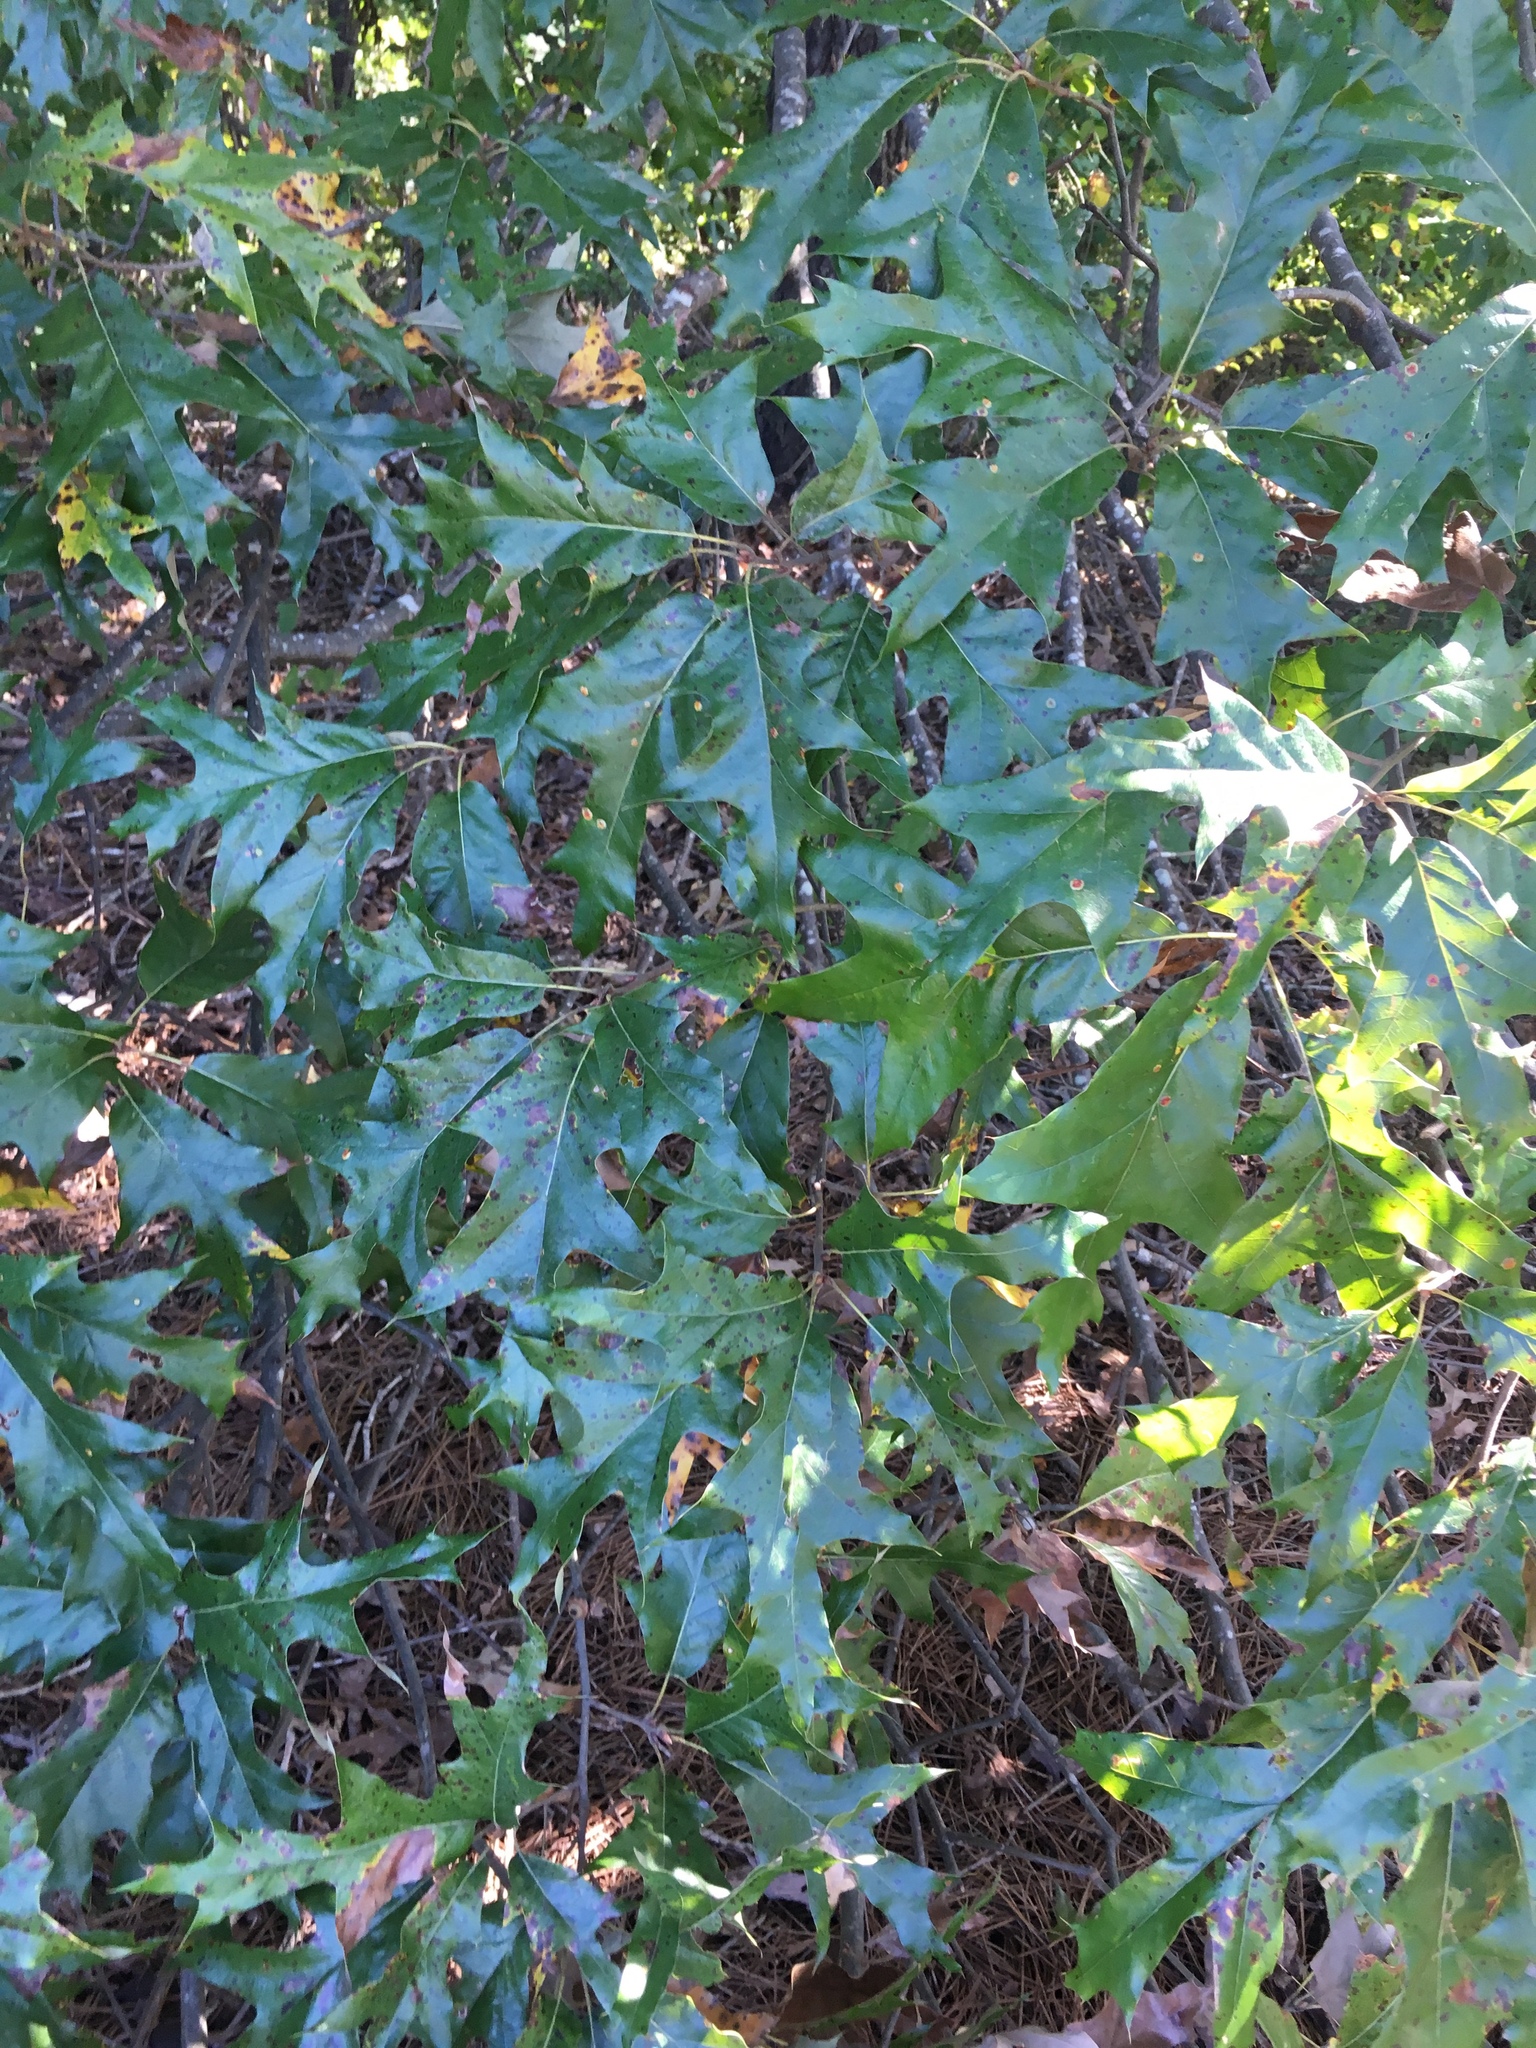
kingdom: Plantae
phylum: Tracheophyta
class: Magnoliopsida
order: Fagales
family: Fagaceae
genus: Quercus
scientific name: Quercus falcata
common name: Southern red oak
